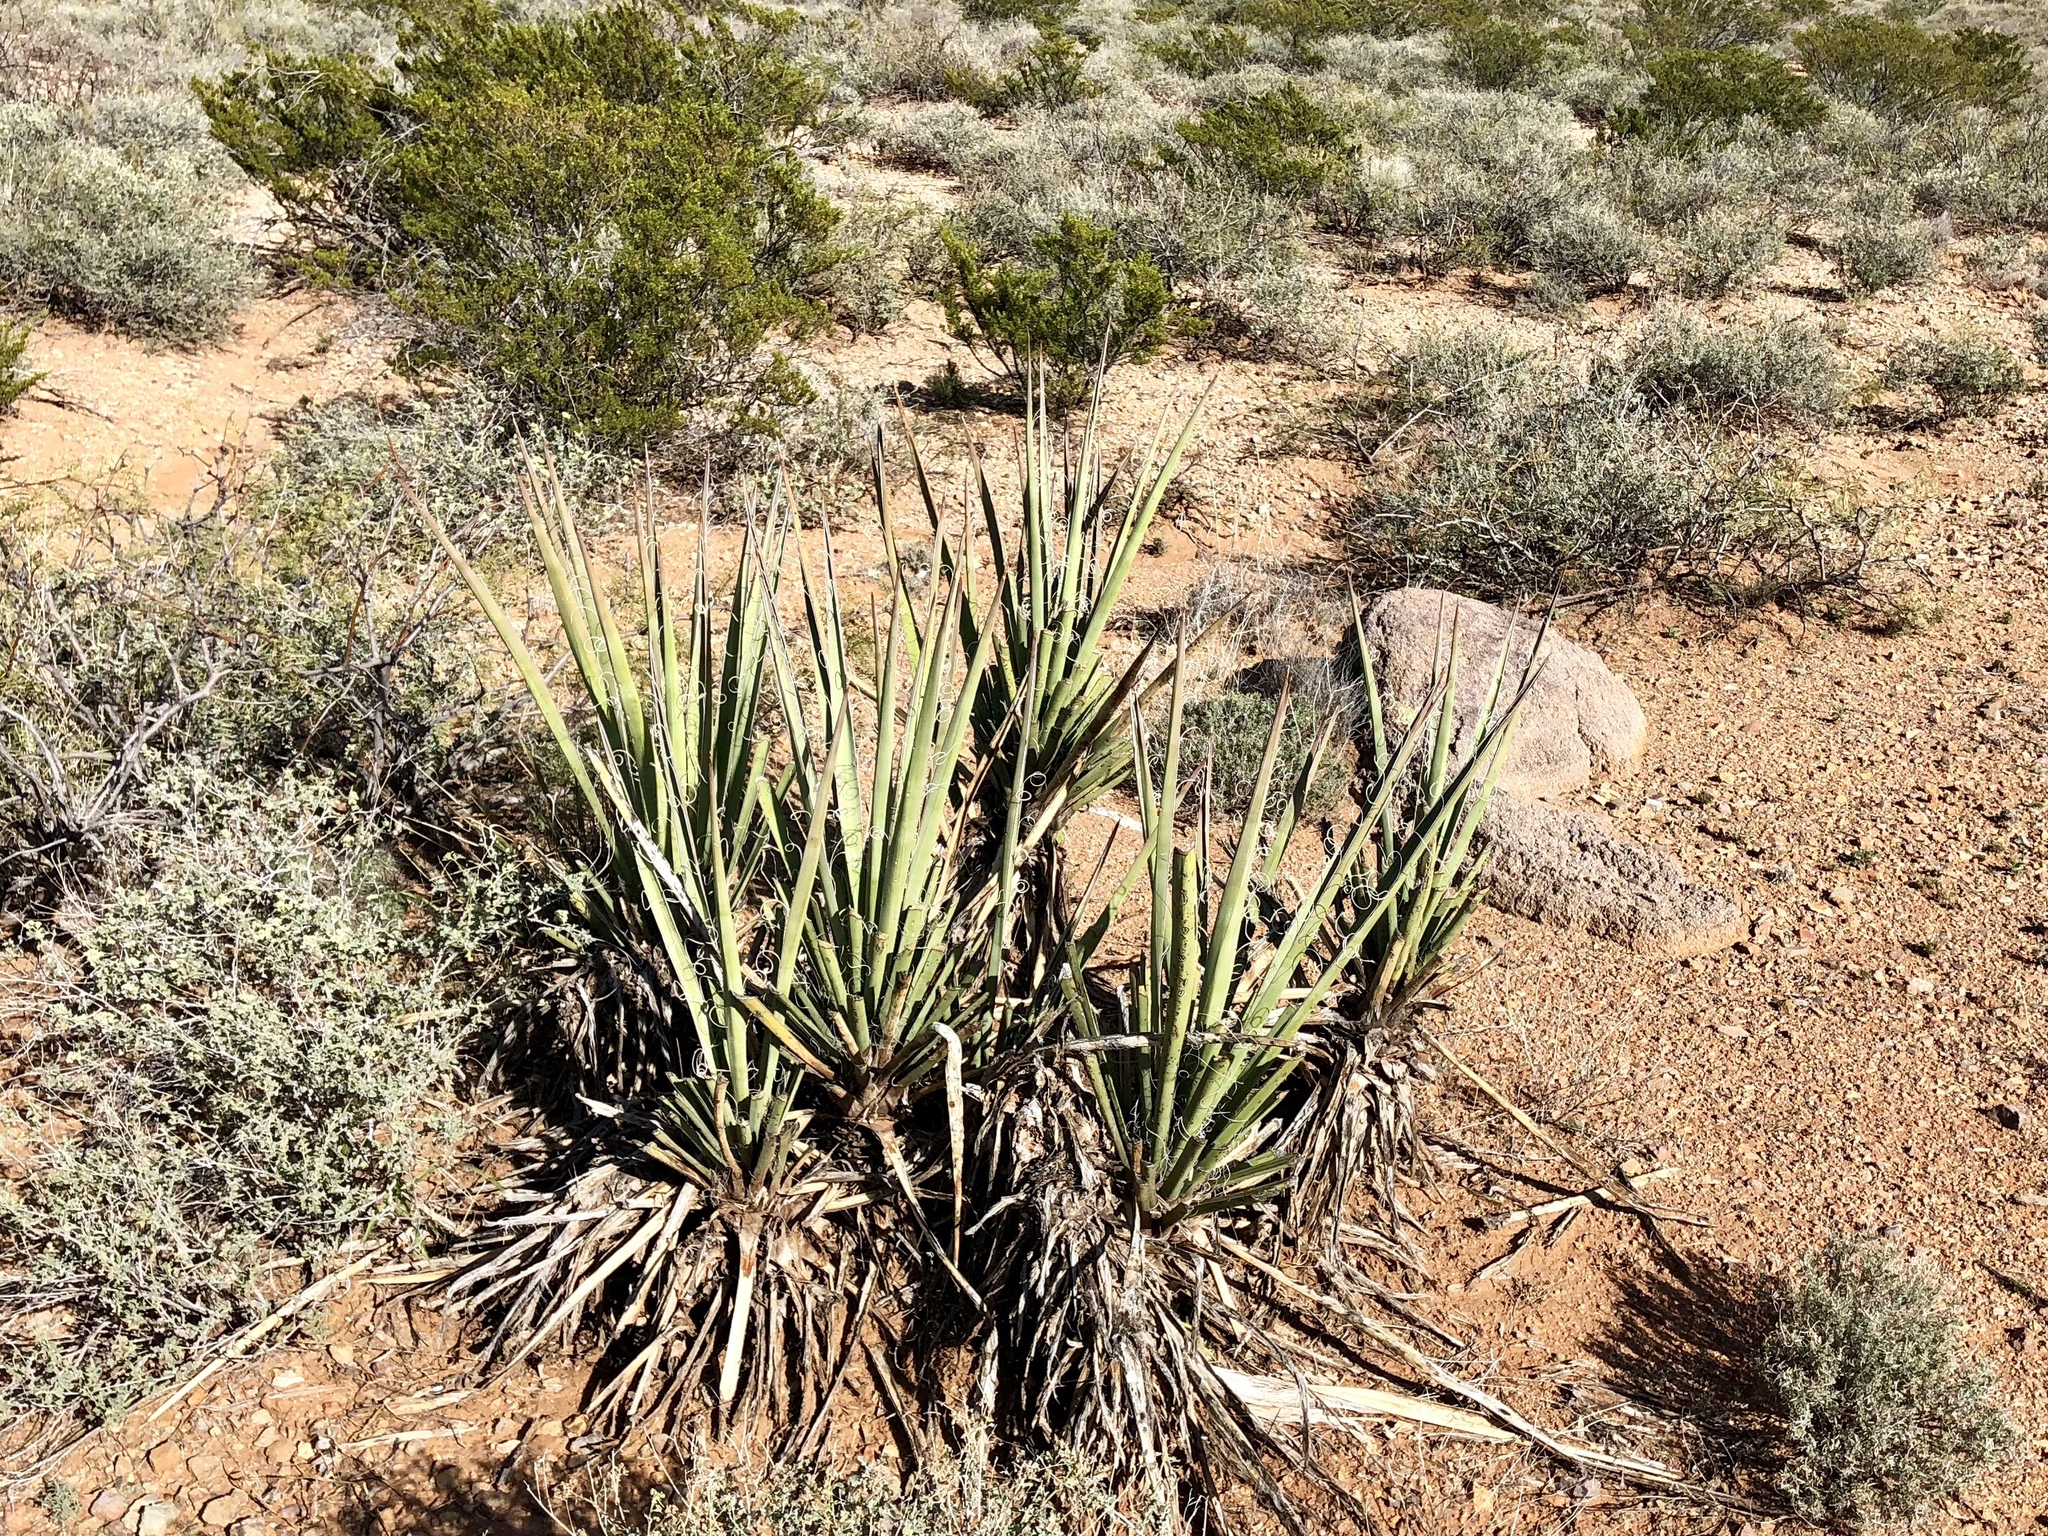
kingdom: Plantae
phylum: Tracheophyta
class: Liliopsida
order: Asparagales
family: Asparagaceae
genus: Yucca
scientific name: Yucca baccata
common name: Banana yucca
